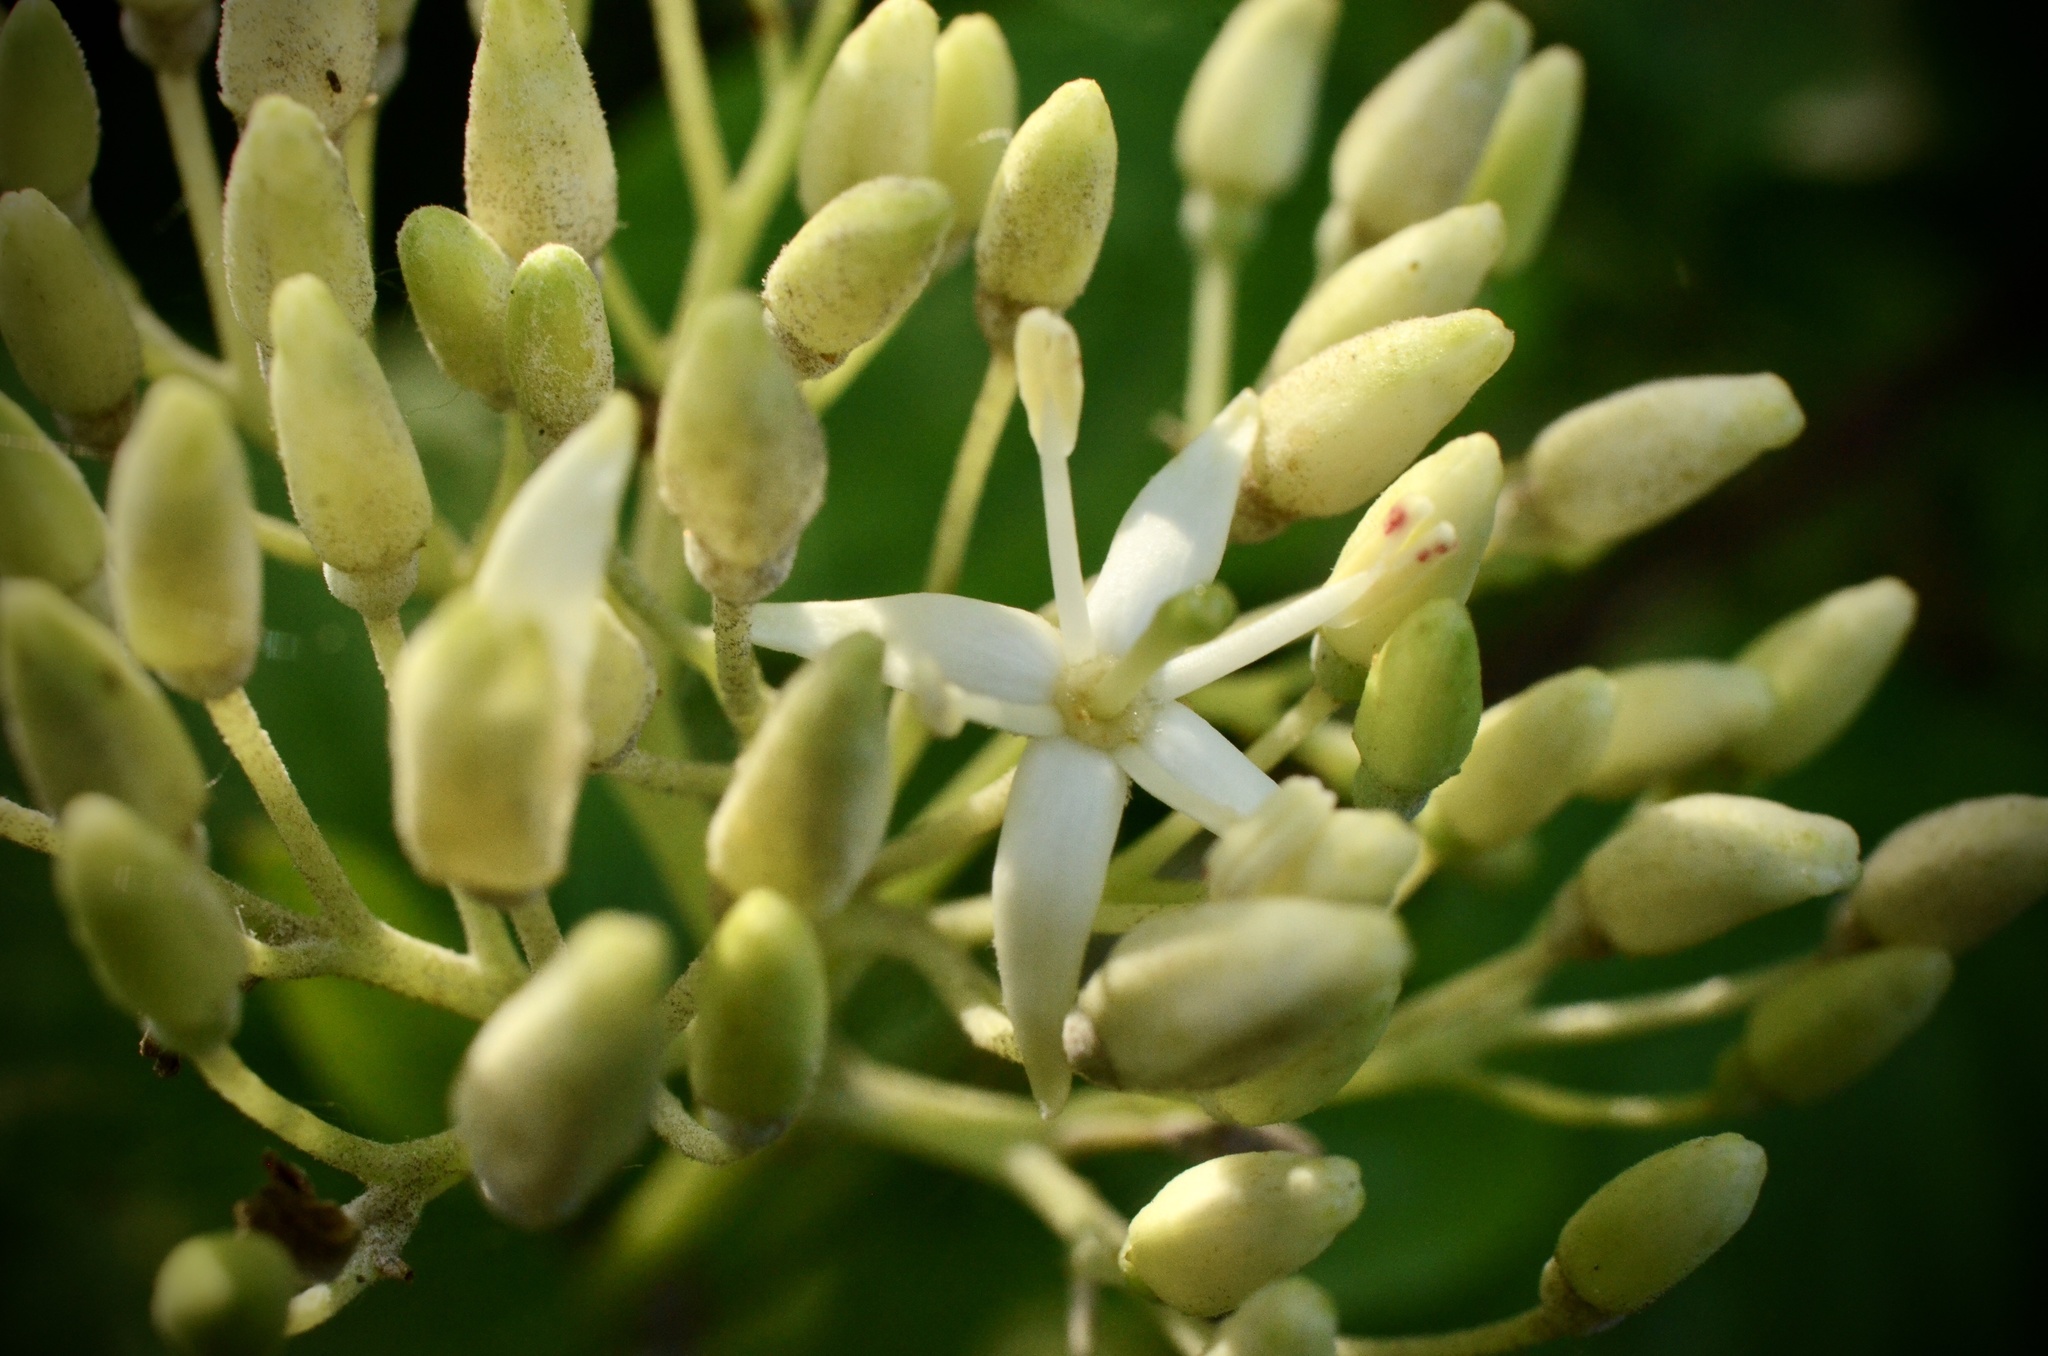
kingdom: Plantae
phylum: Tracheophyta
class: Magnoliopsida
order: Cornales
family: Cornaceae
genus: Cornus
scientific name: Cornus sanguinea
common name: Dogwood
